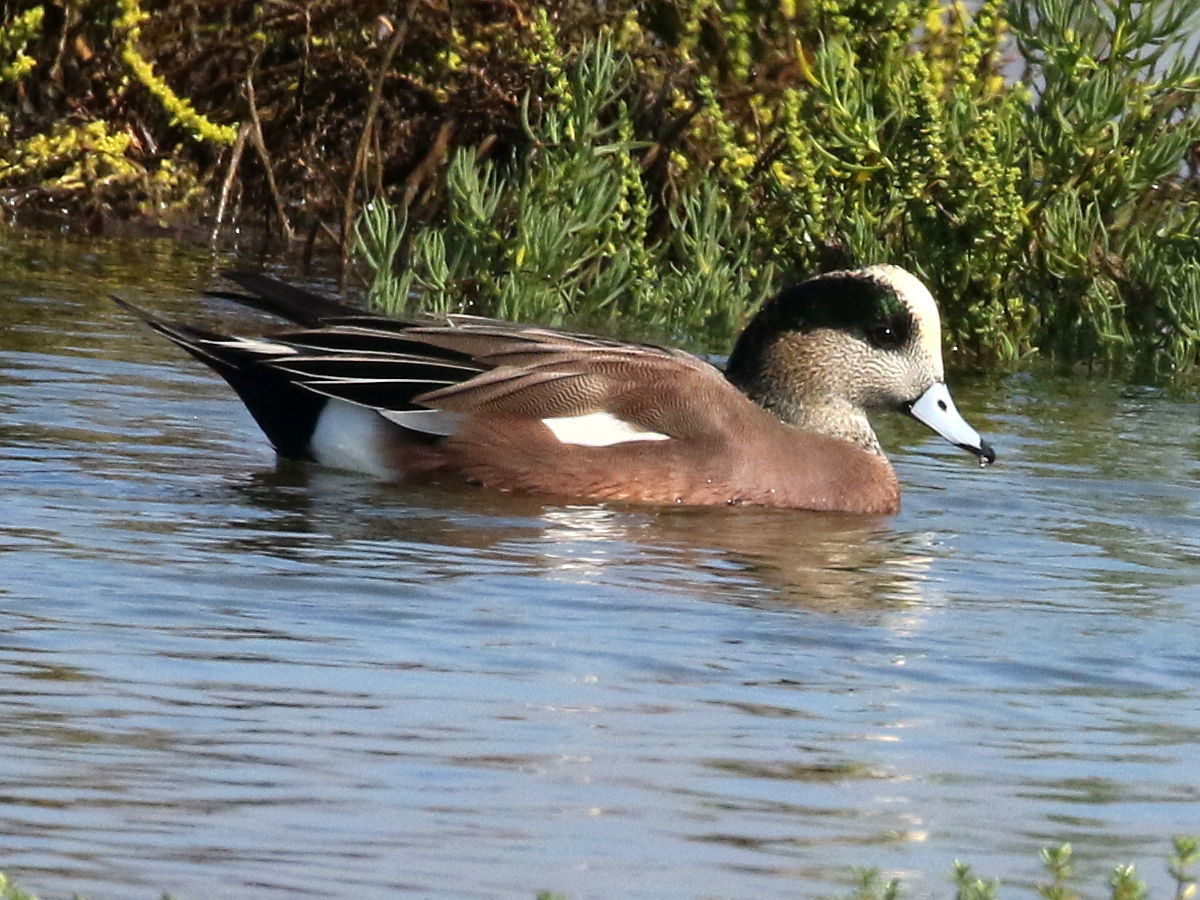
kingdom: Animalia
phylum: Chordata
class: Aves
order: Anseriformes
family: Anatidae
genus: Mareca
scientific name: Mareca americana
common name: American wigeon
